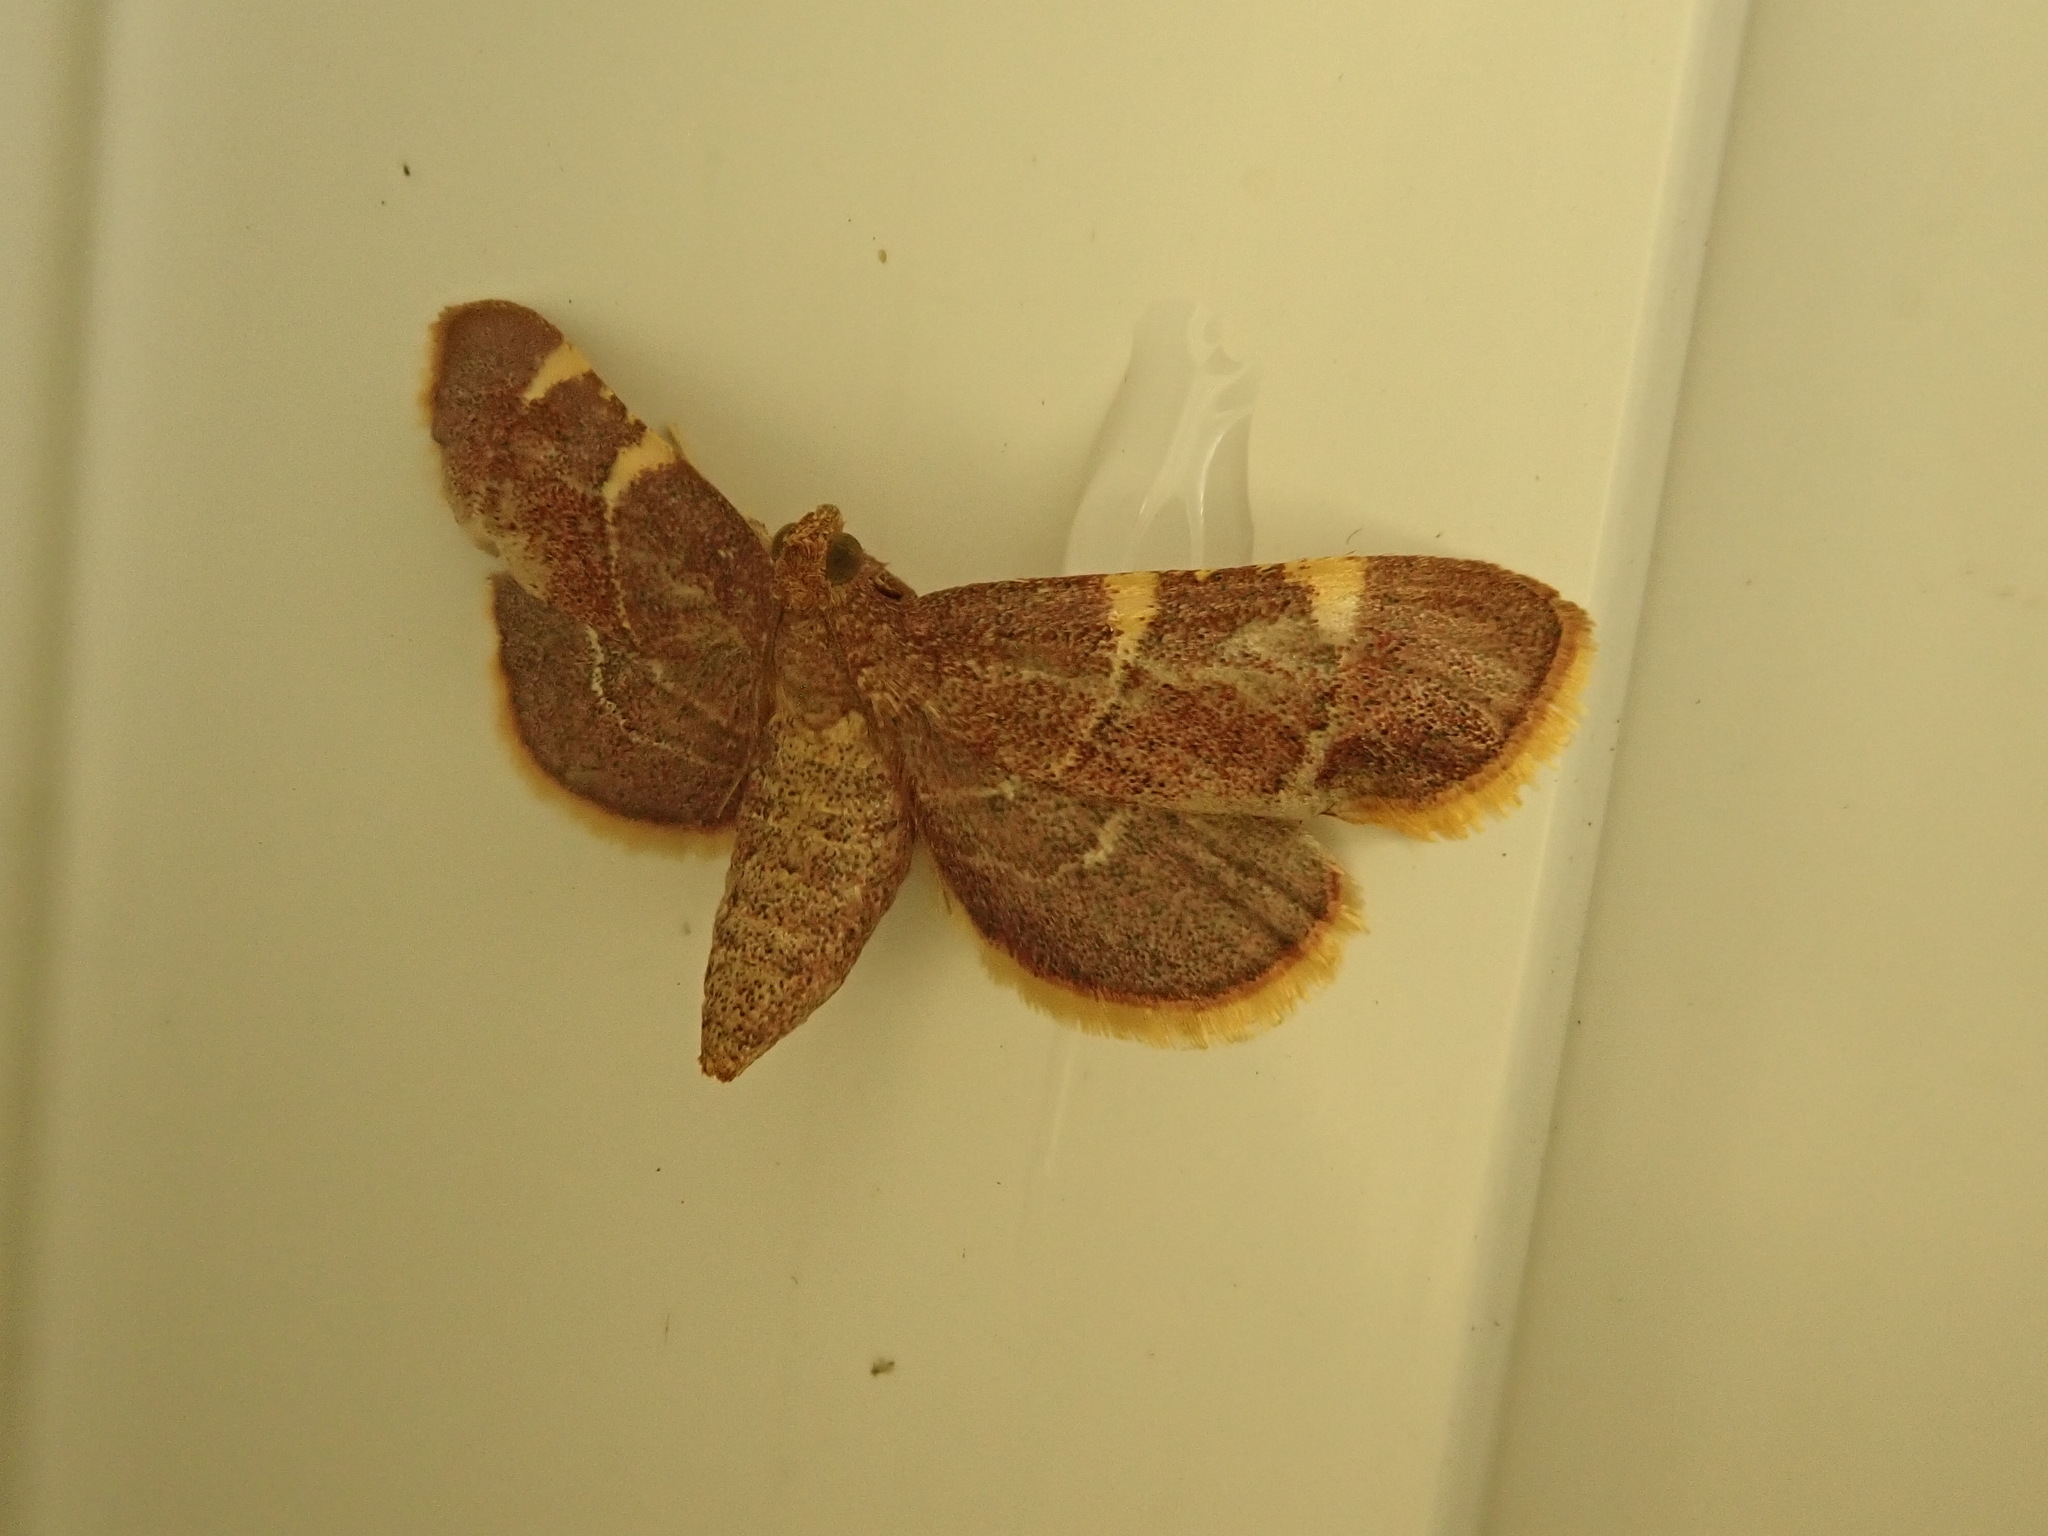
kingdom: Animalia
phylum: Arthropoda
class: Insecta
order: Lepidoptera
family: Pyralidae
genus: Hypsopygia
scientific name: Hypsopygia olinalis
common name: Yellow-fringed dolichomia moth
